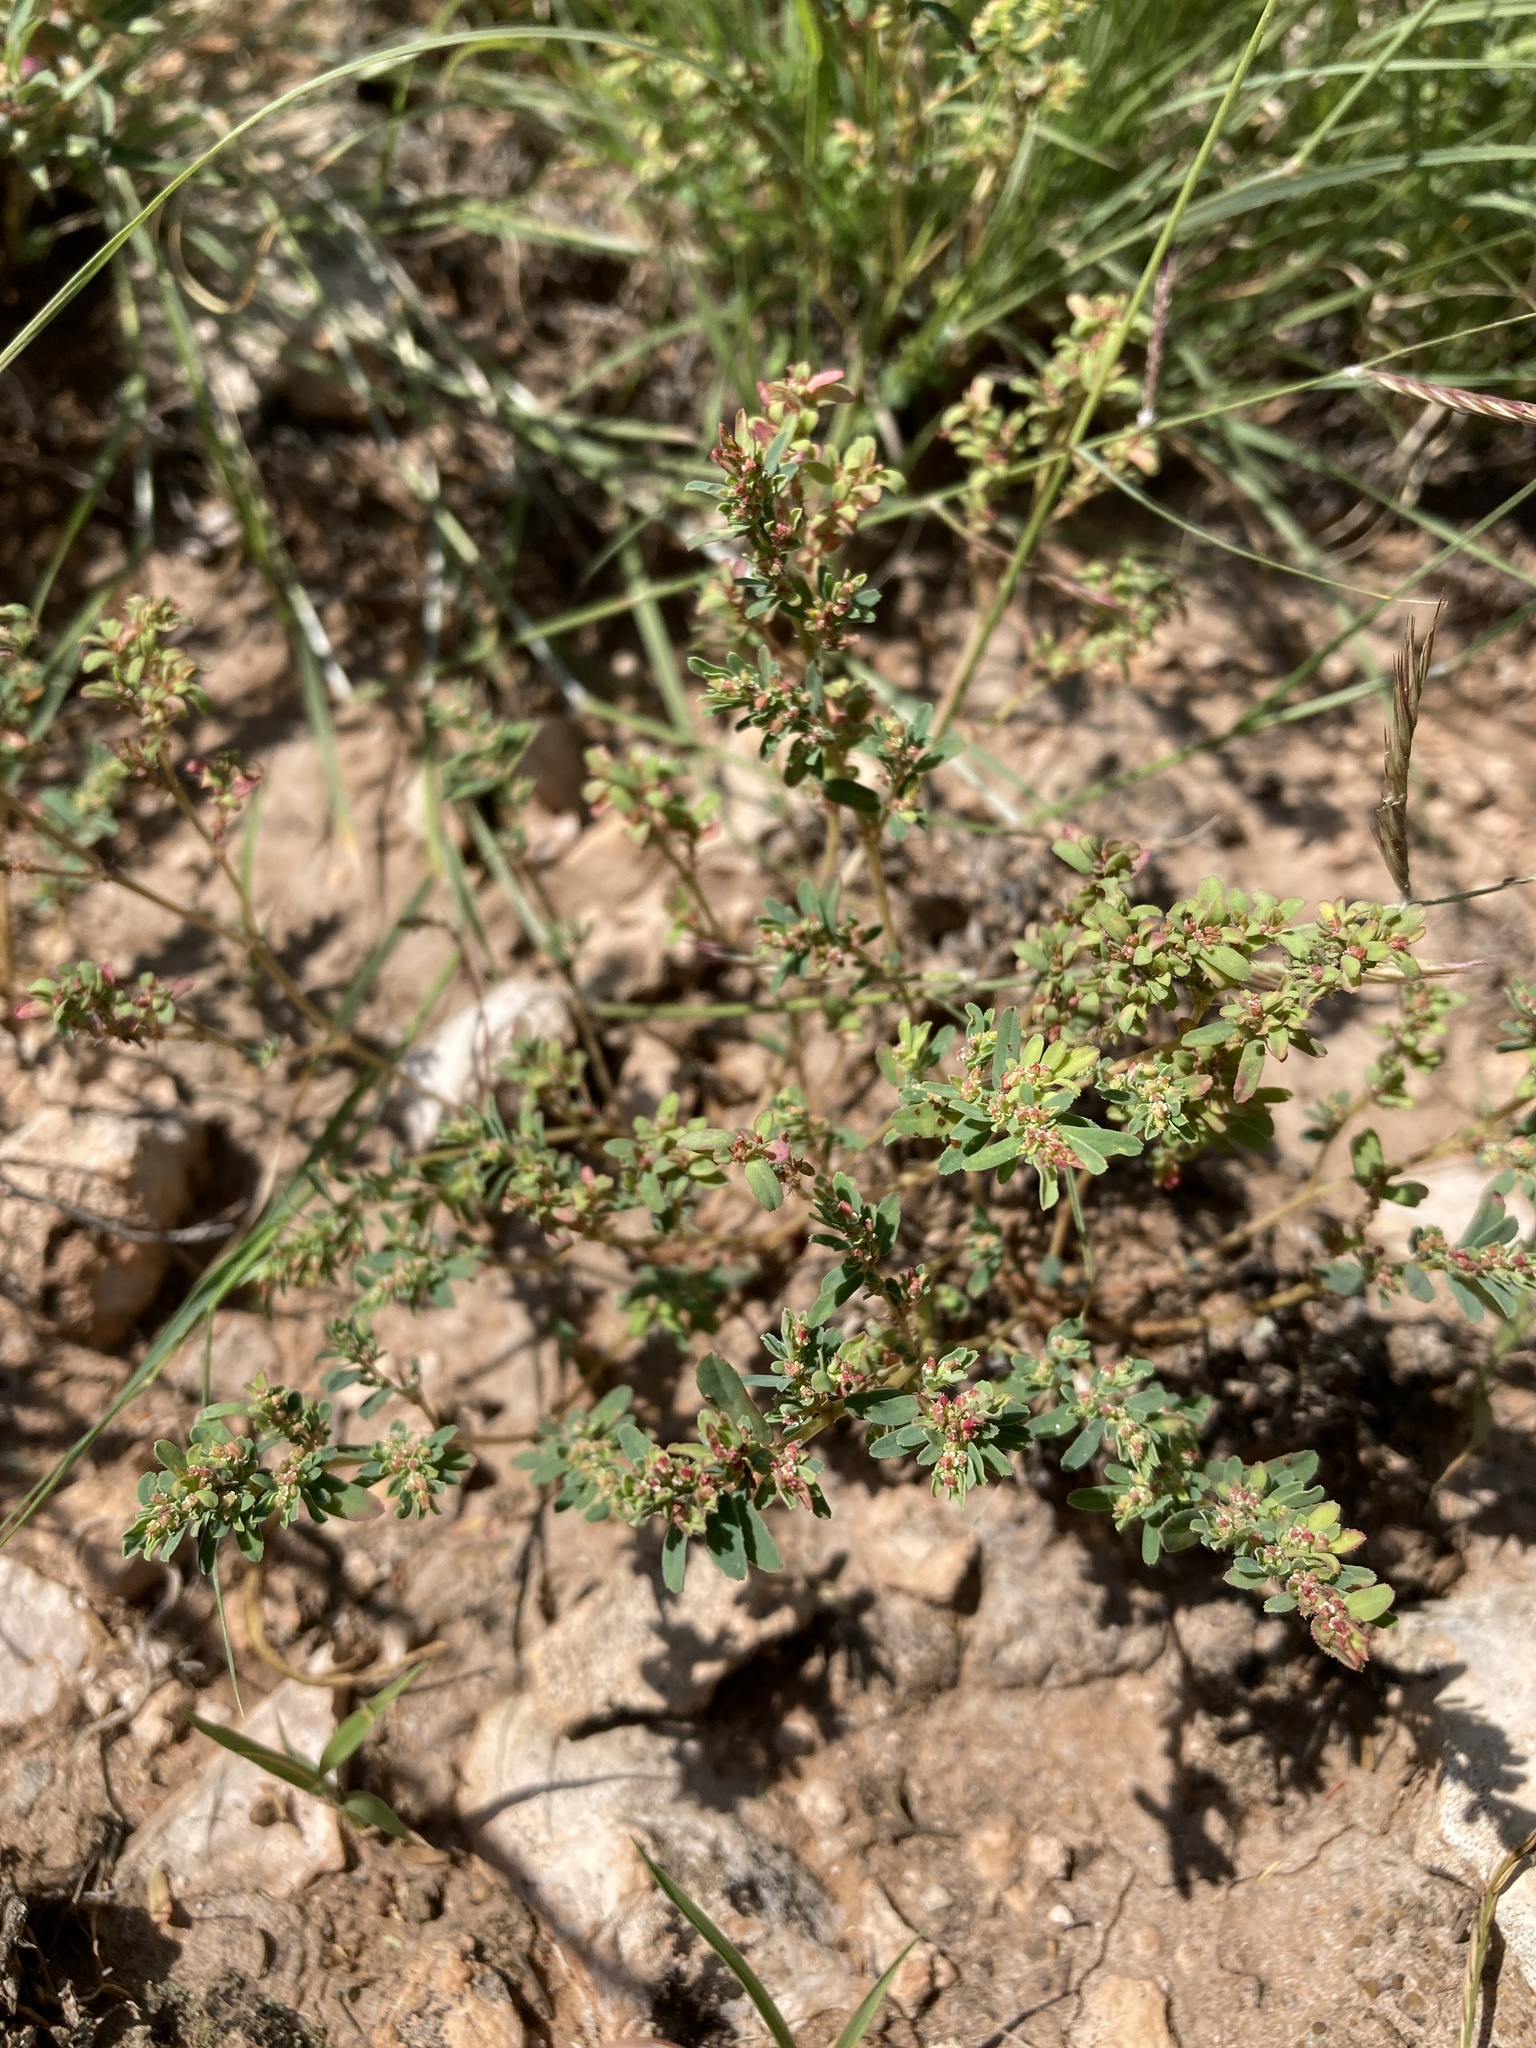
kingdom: Plantae
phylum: Tracheophyta
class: Magnoliopsida
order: Malpighiales
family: Euphorbiaceae
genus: Euphorbia
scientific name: Euphorbia serpillifolia
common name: Thyme-leaf spurge
